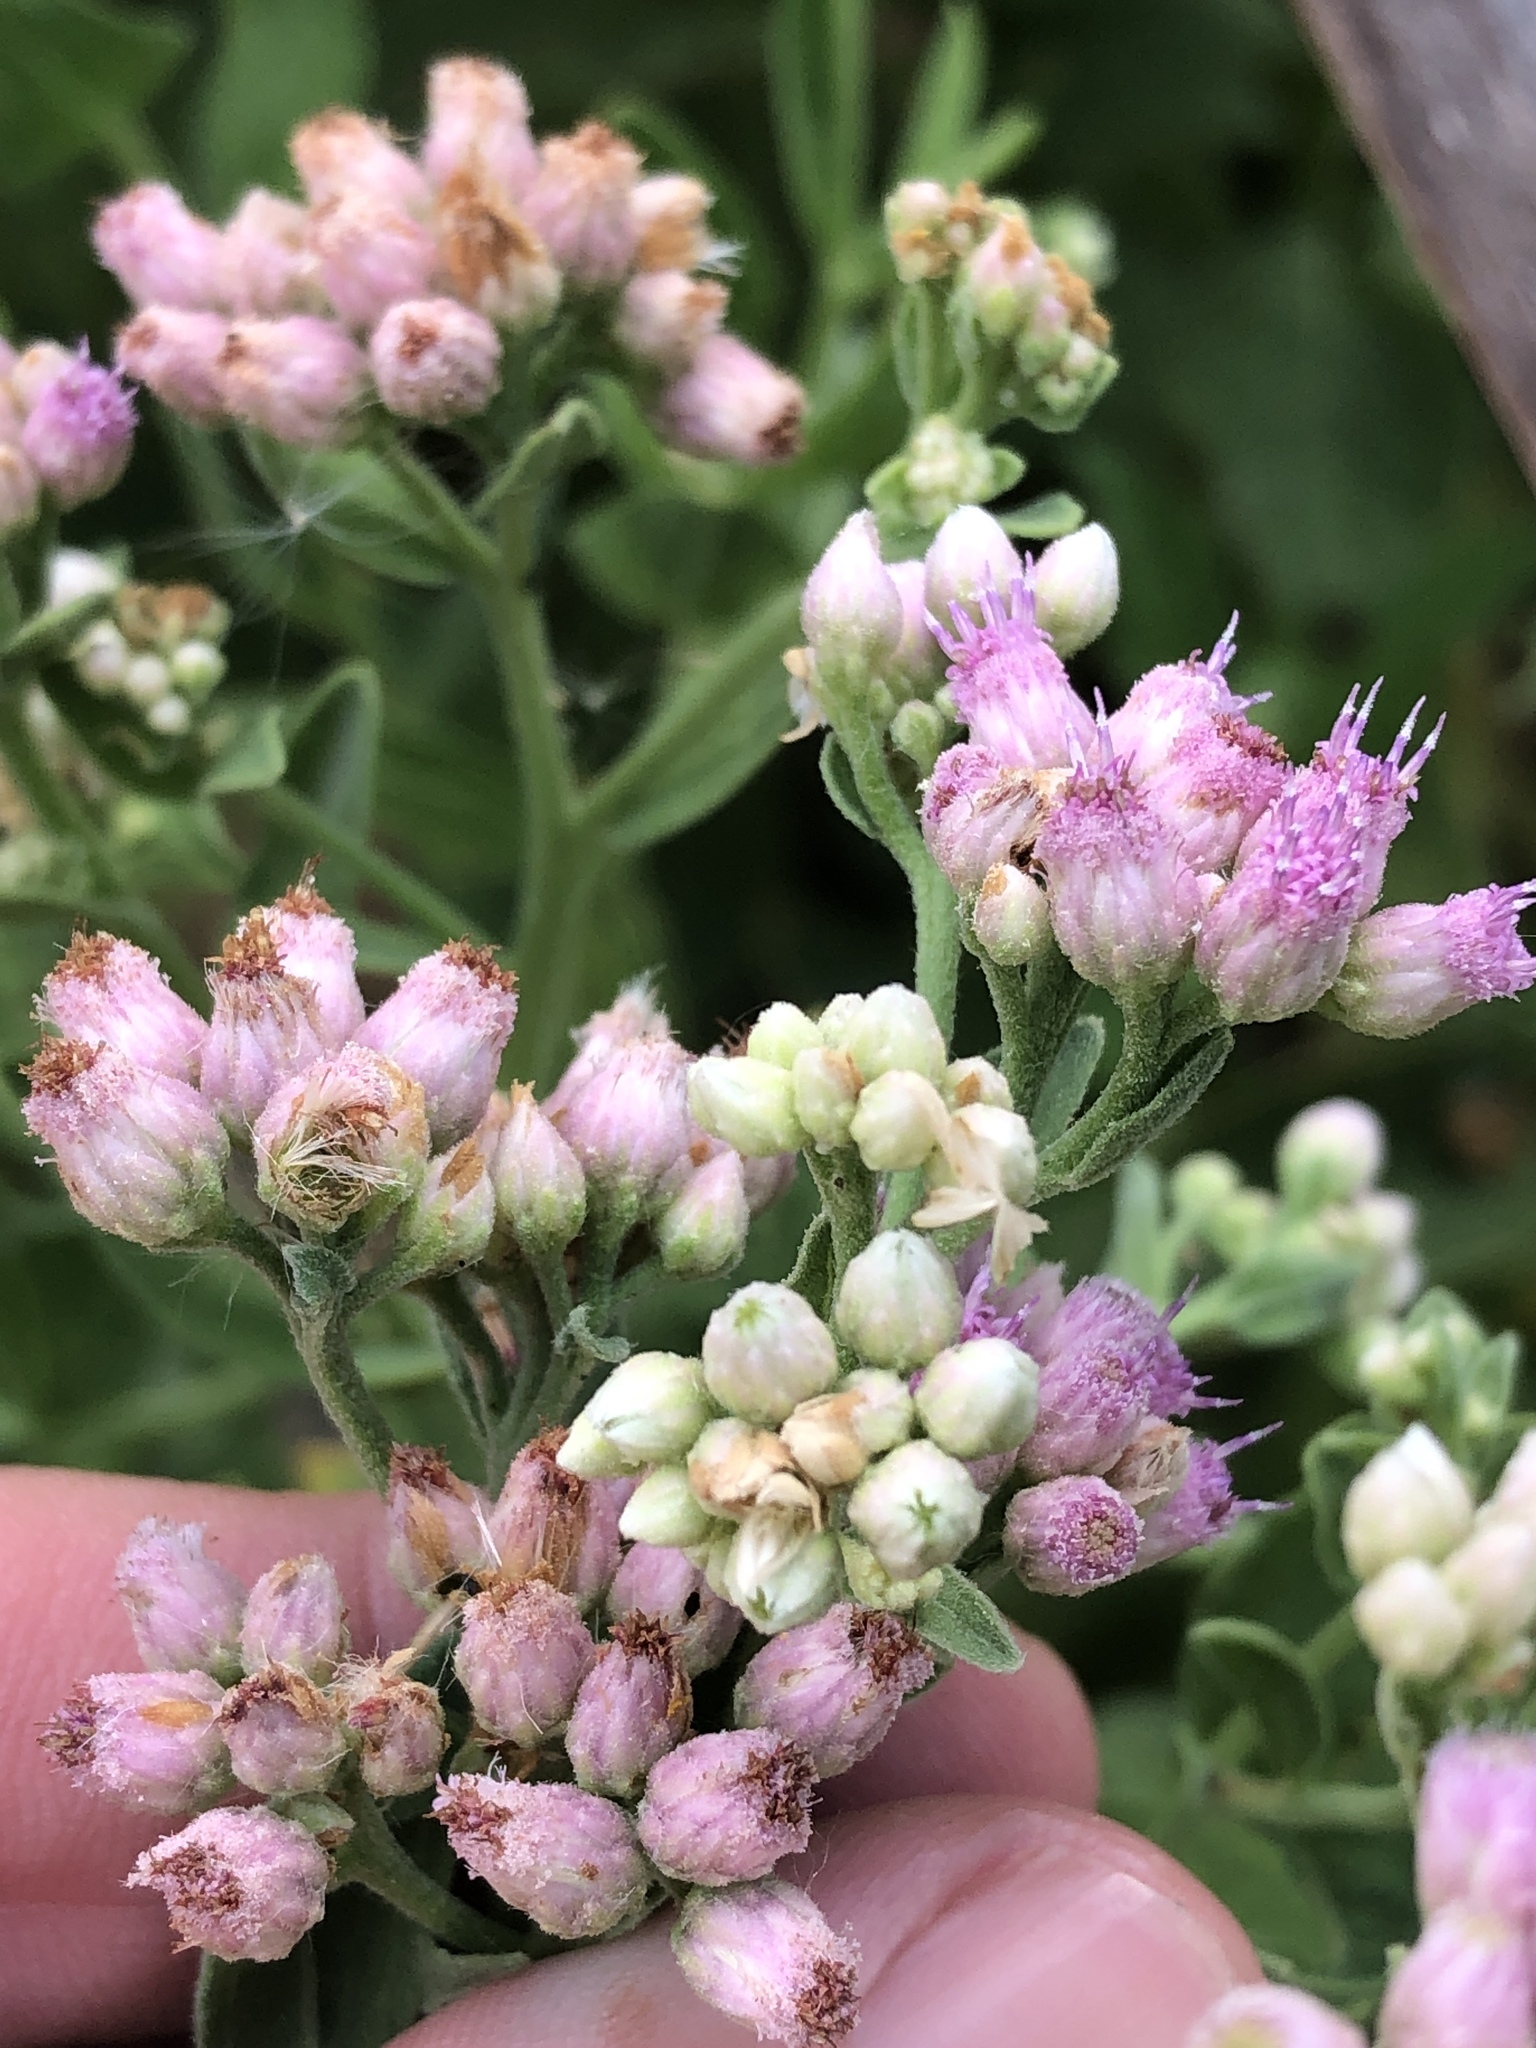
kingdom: Plantae
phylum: Tracheophyta
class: Magnoliopsida
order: Asterales
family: Asteraceae
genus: Pluchea
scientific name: Pluchea odorata
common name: Saltmarsh fleabane
